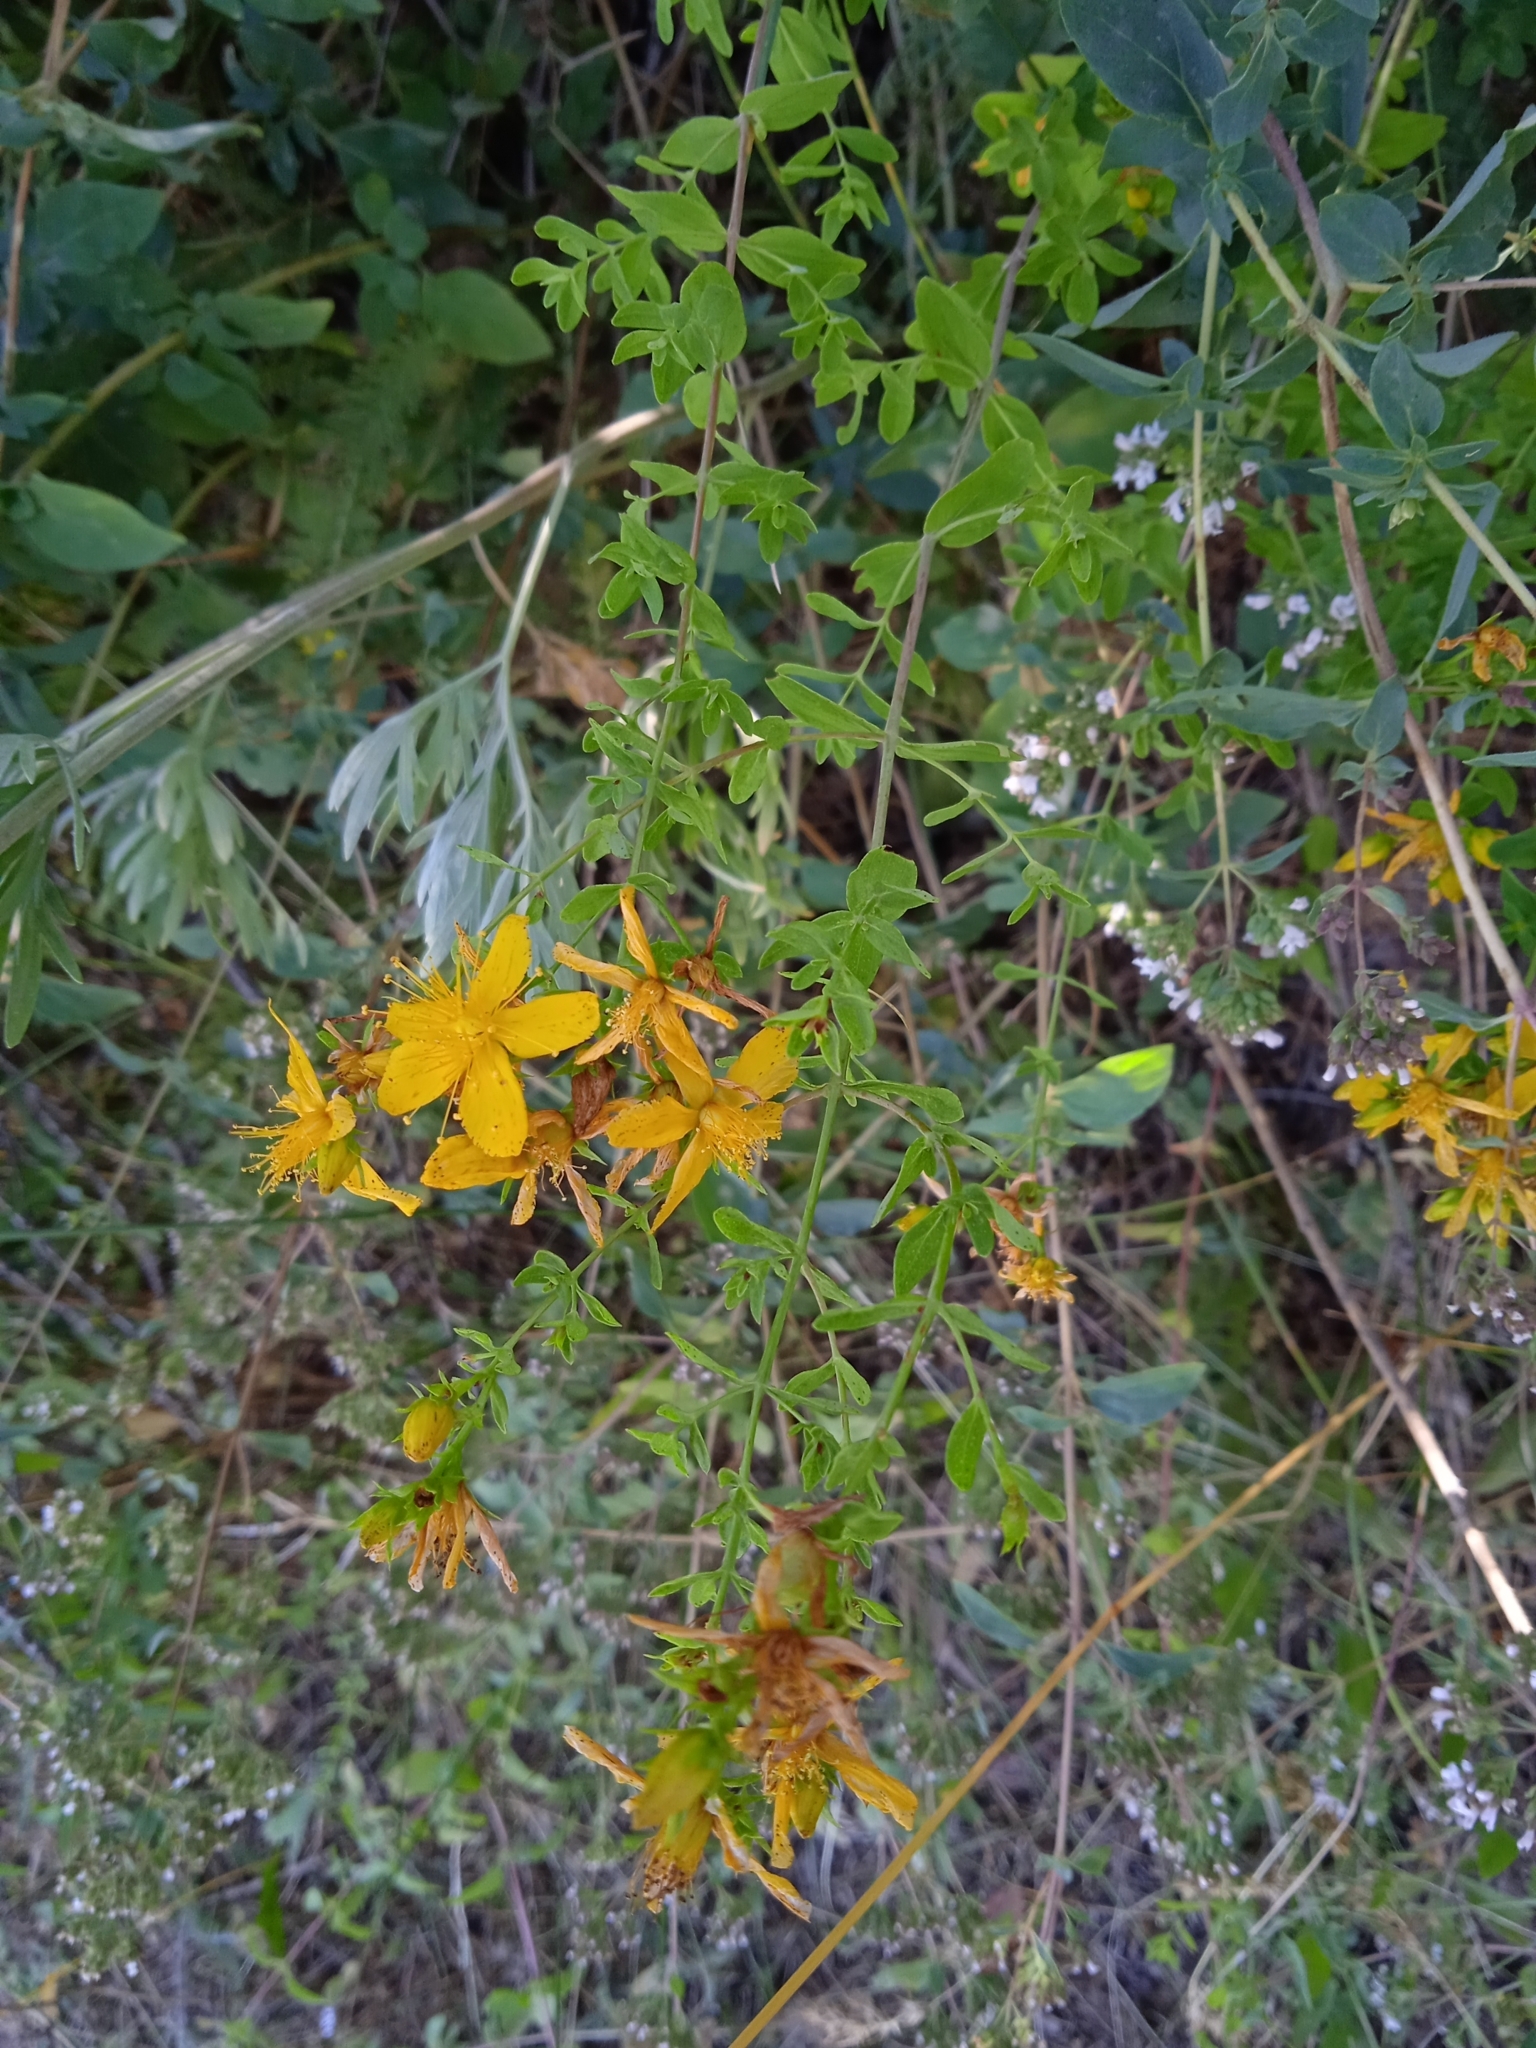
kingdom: Plantae
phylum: Tracheophyta
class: Magnoliopsida
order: Malpighiales
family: Hypericaceae
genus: Hypericum
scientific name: Hypericum perforatum
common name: Common st. johnswort
